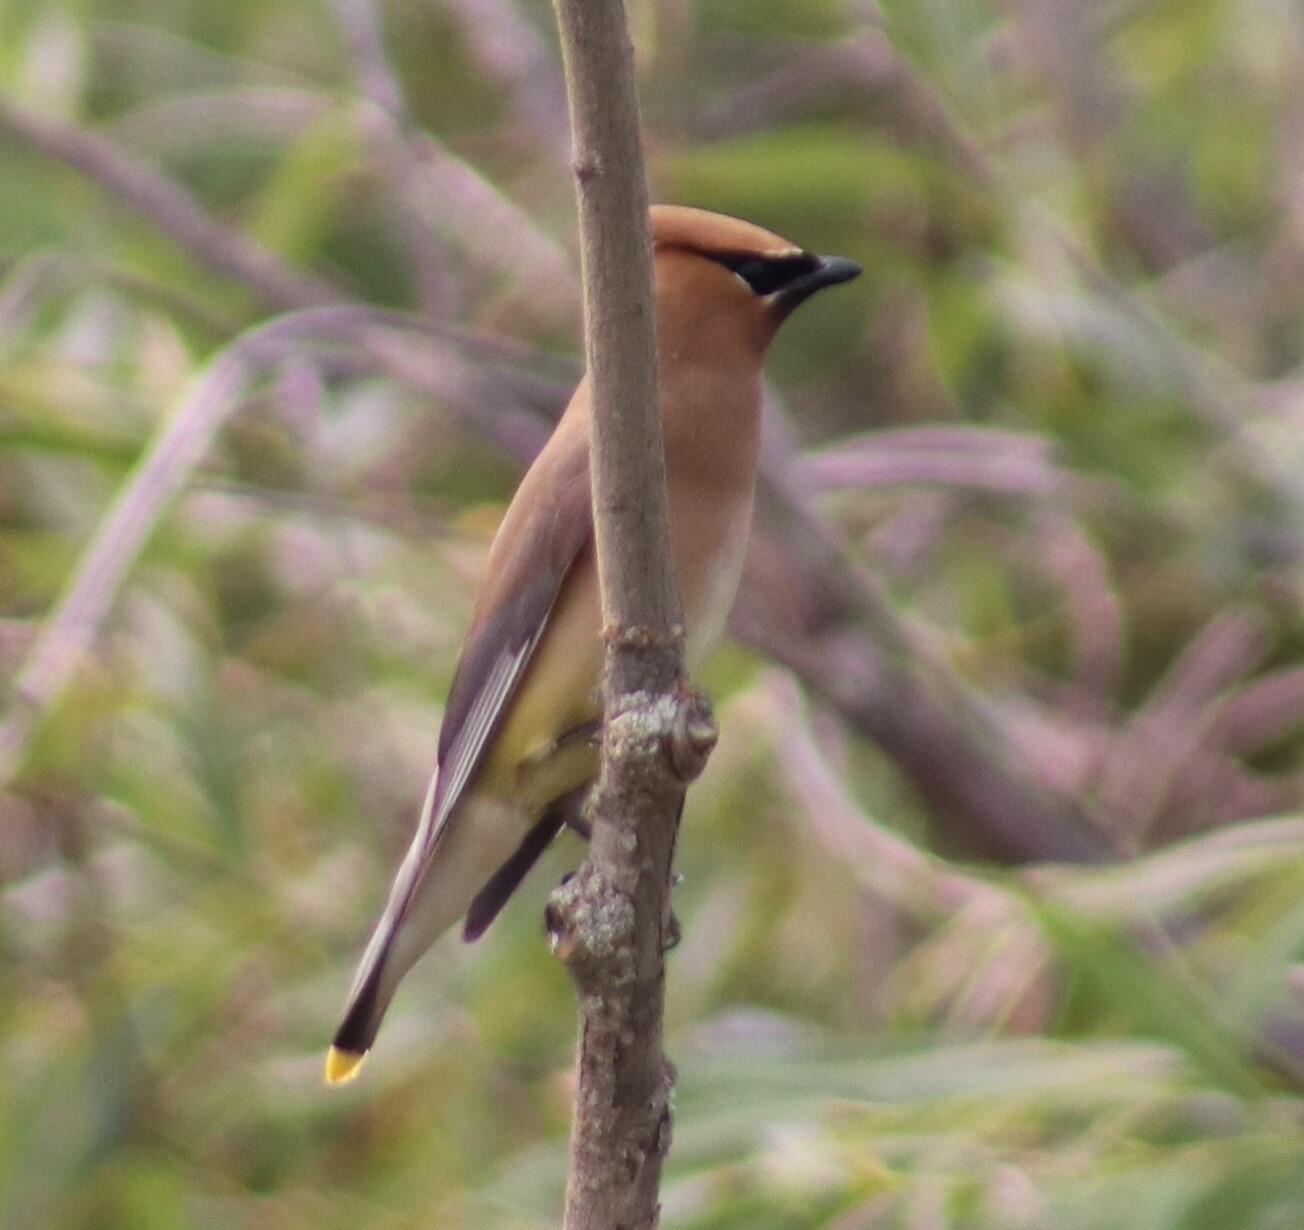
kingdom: Animalia
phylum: Chordata
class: Aves
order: Passeriformes
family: Bombycillidae
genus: Bombycilla
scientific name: Bombycilla cedrorum
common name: Cedar waxwing
